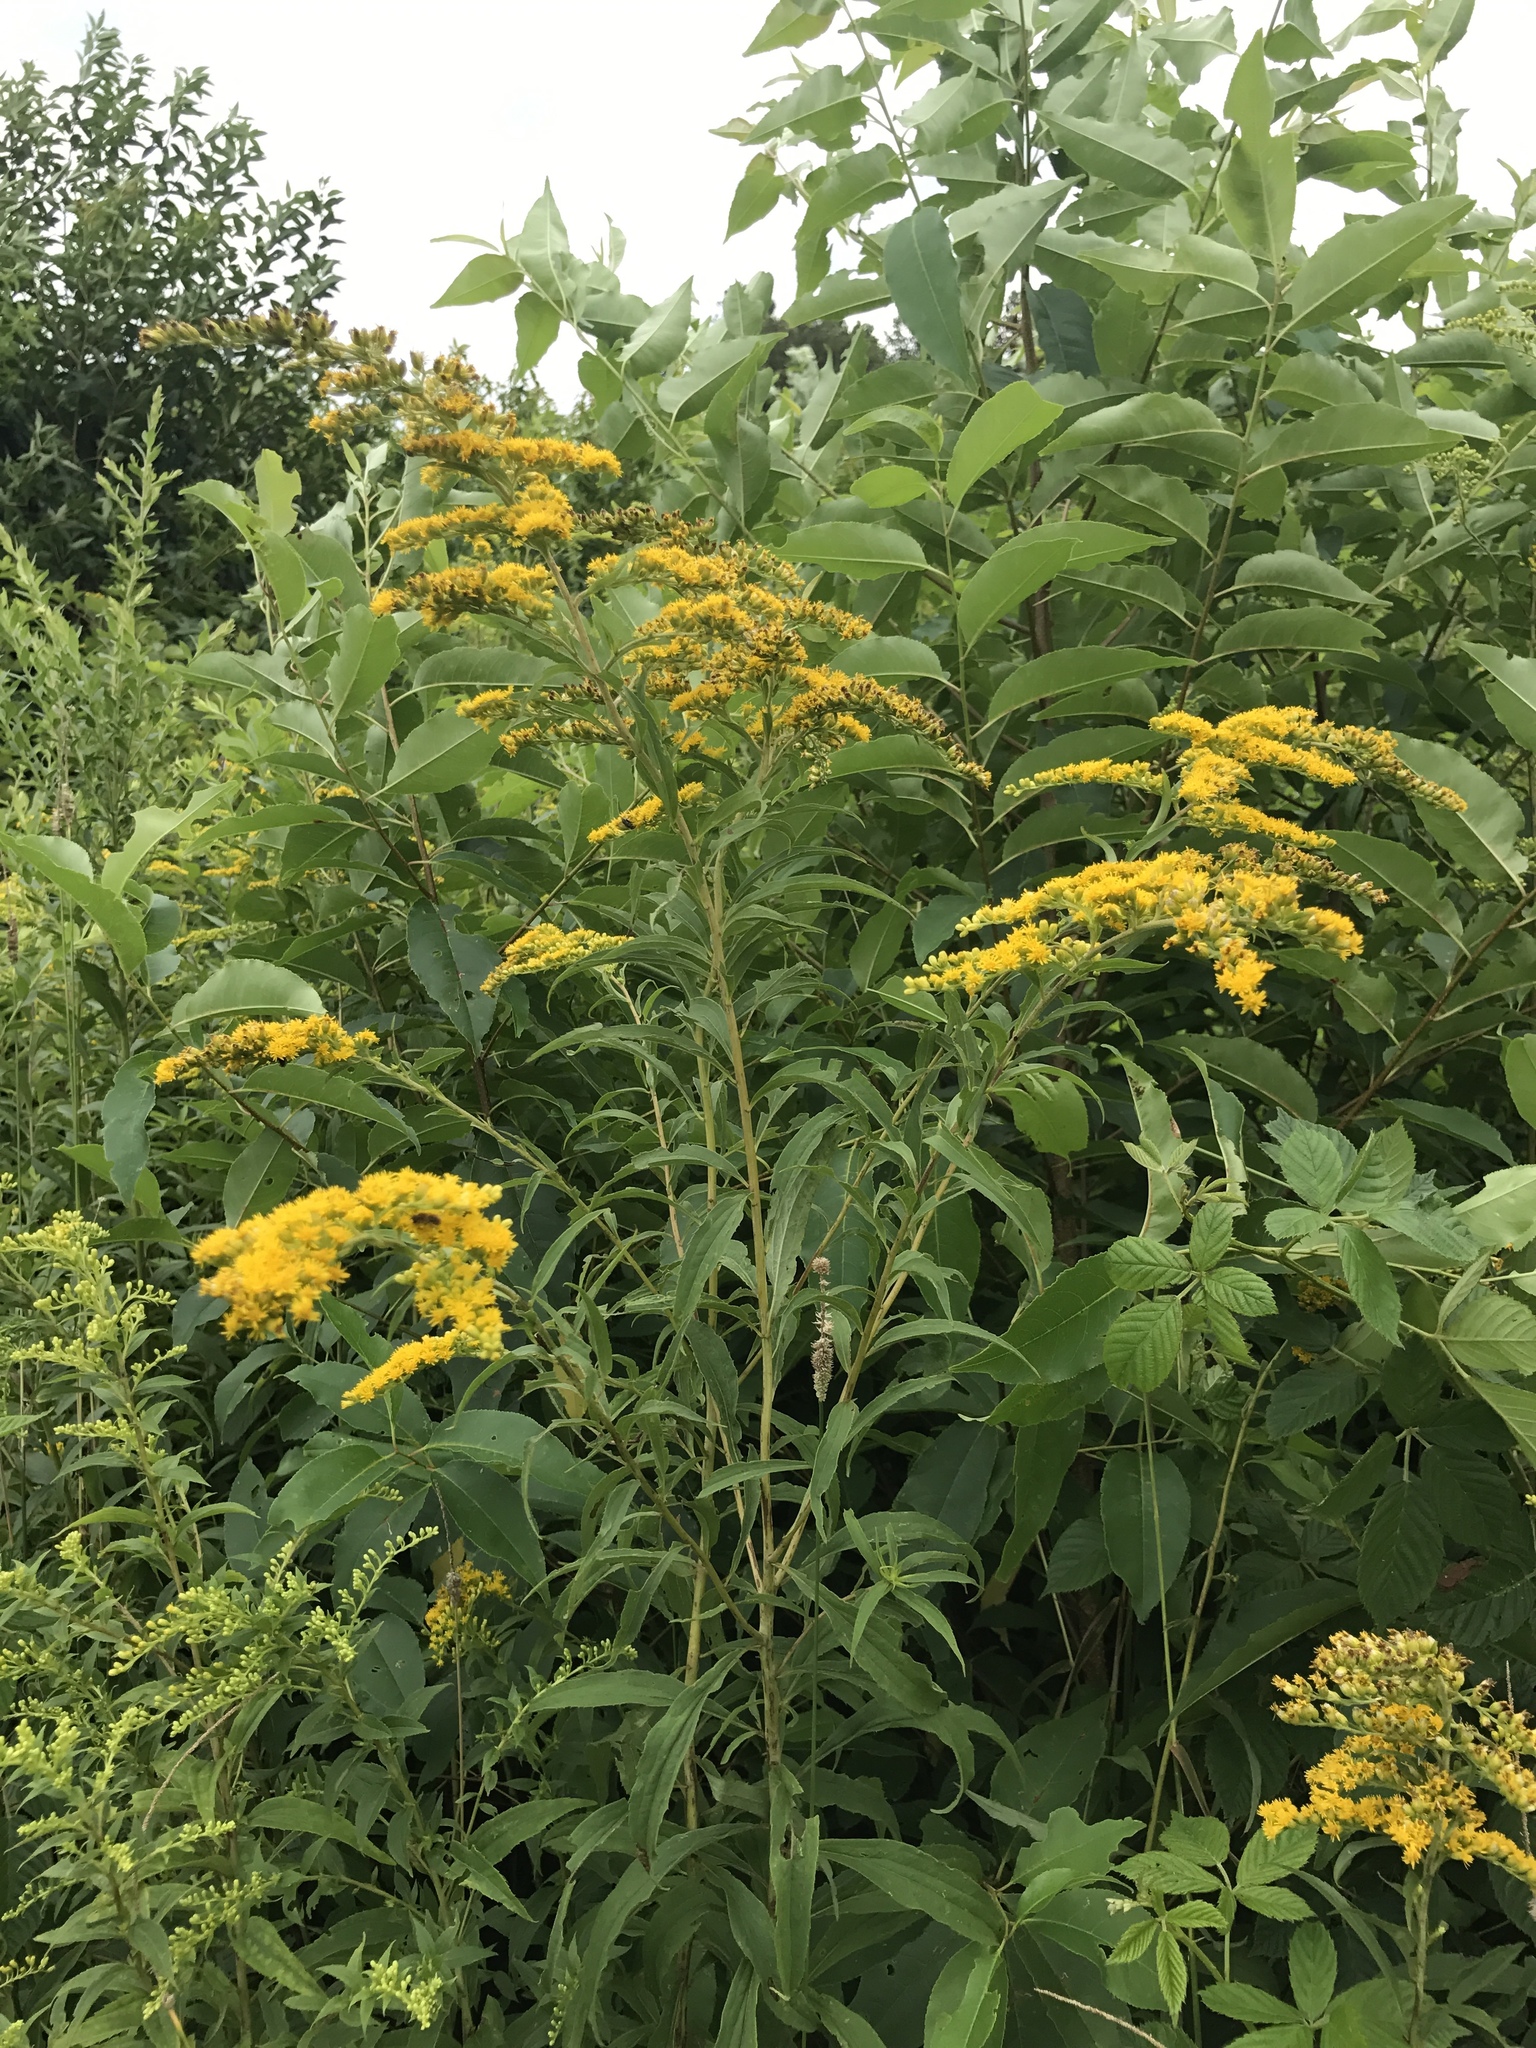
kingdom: Plantae
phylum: Tracheophyta
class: Magnoliopsida
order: Asterales
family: Asteraceae
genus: Solidago
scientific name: Solidago canadensis
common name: Canada goldenrod
